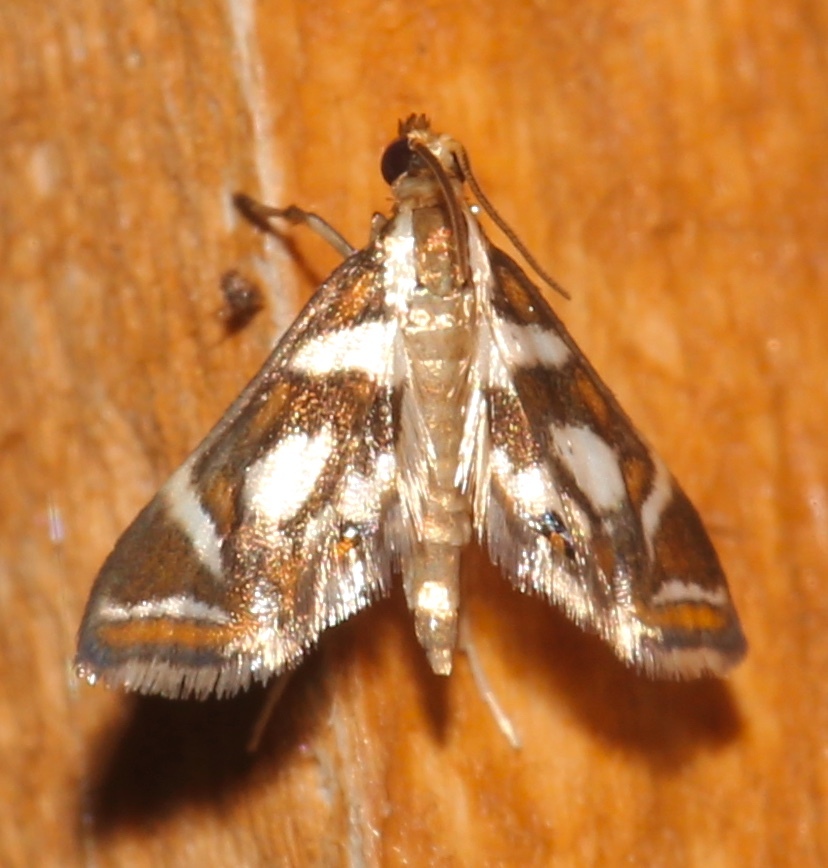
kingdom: Animalia
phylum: Arthropoda
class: Insecta
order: Lepidoptera
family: Crambidae
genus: Chrysendeton
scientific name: Chrysendeton medicinalis
